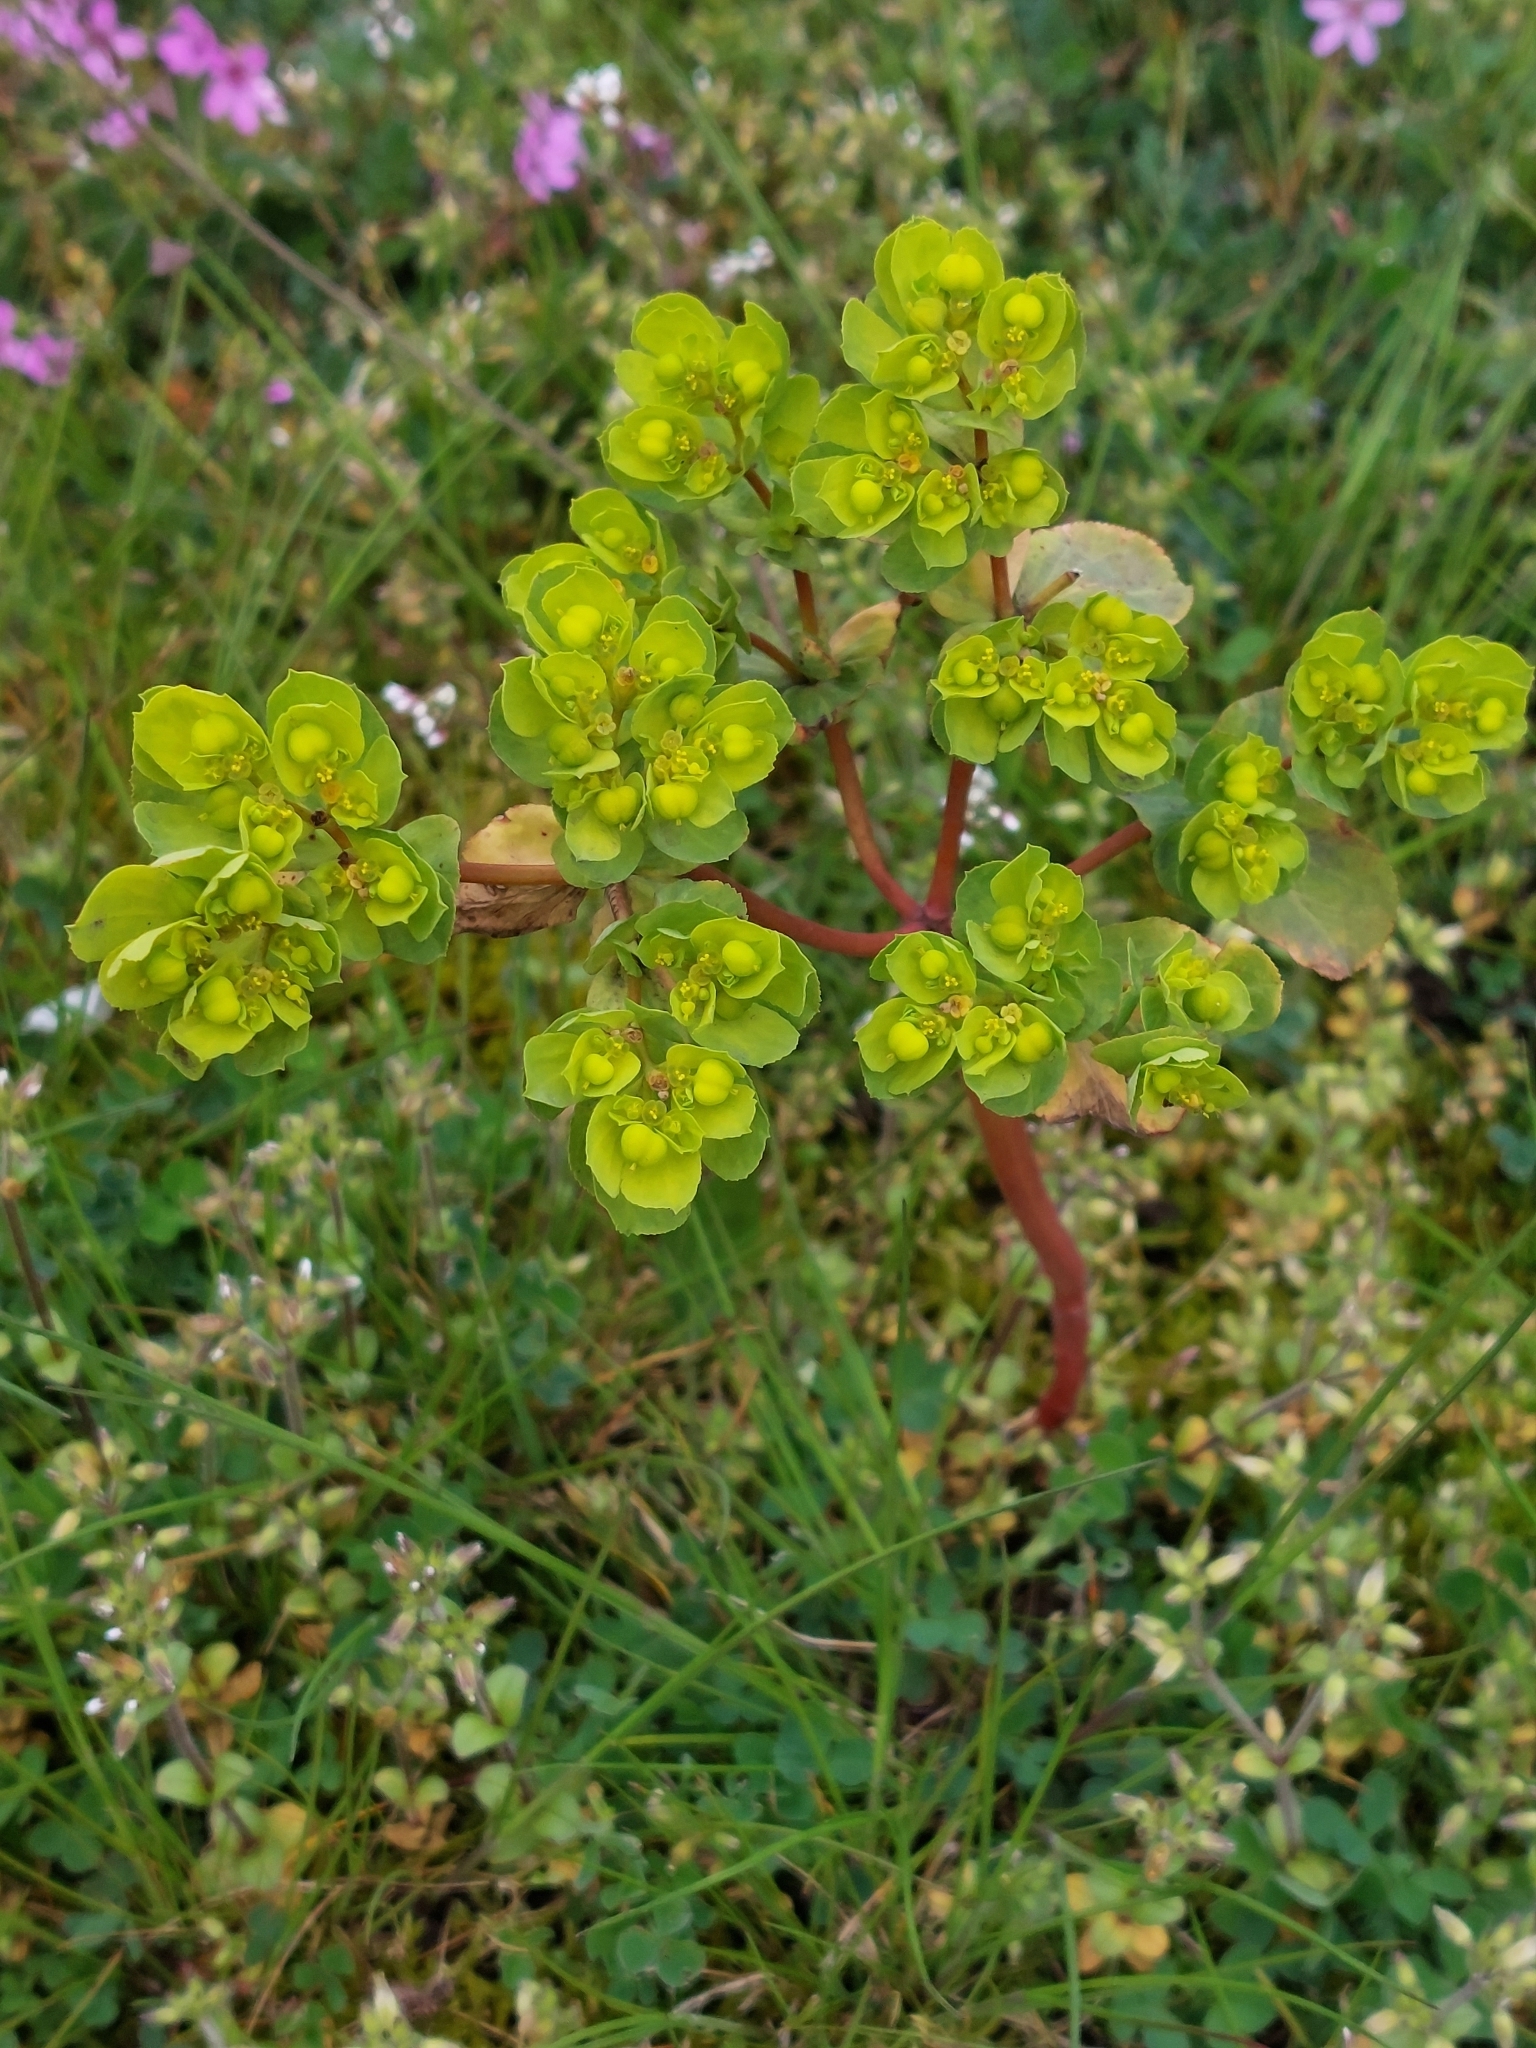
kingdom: Plantae
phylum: Tracheophyta
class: Magnoliopsida
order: Malpighiales
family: Euphorbiaceae
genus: Euphorbia
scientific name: Euphorbia helioscopia
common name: Sun spurge
